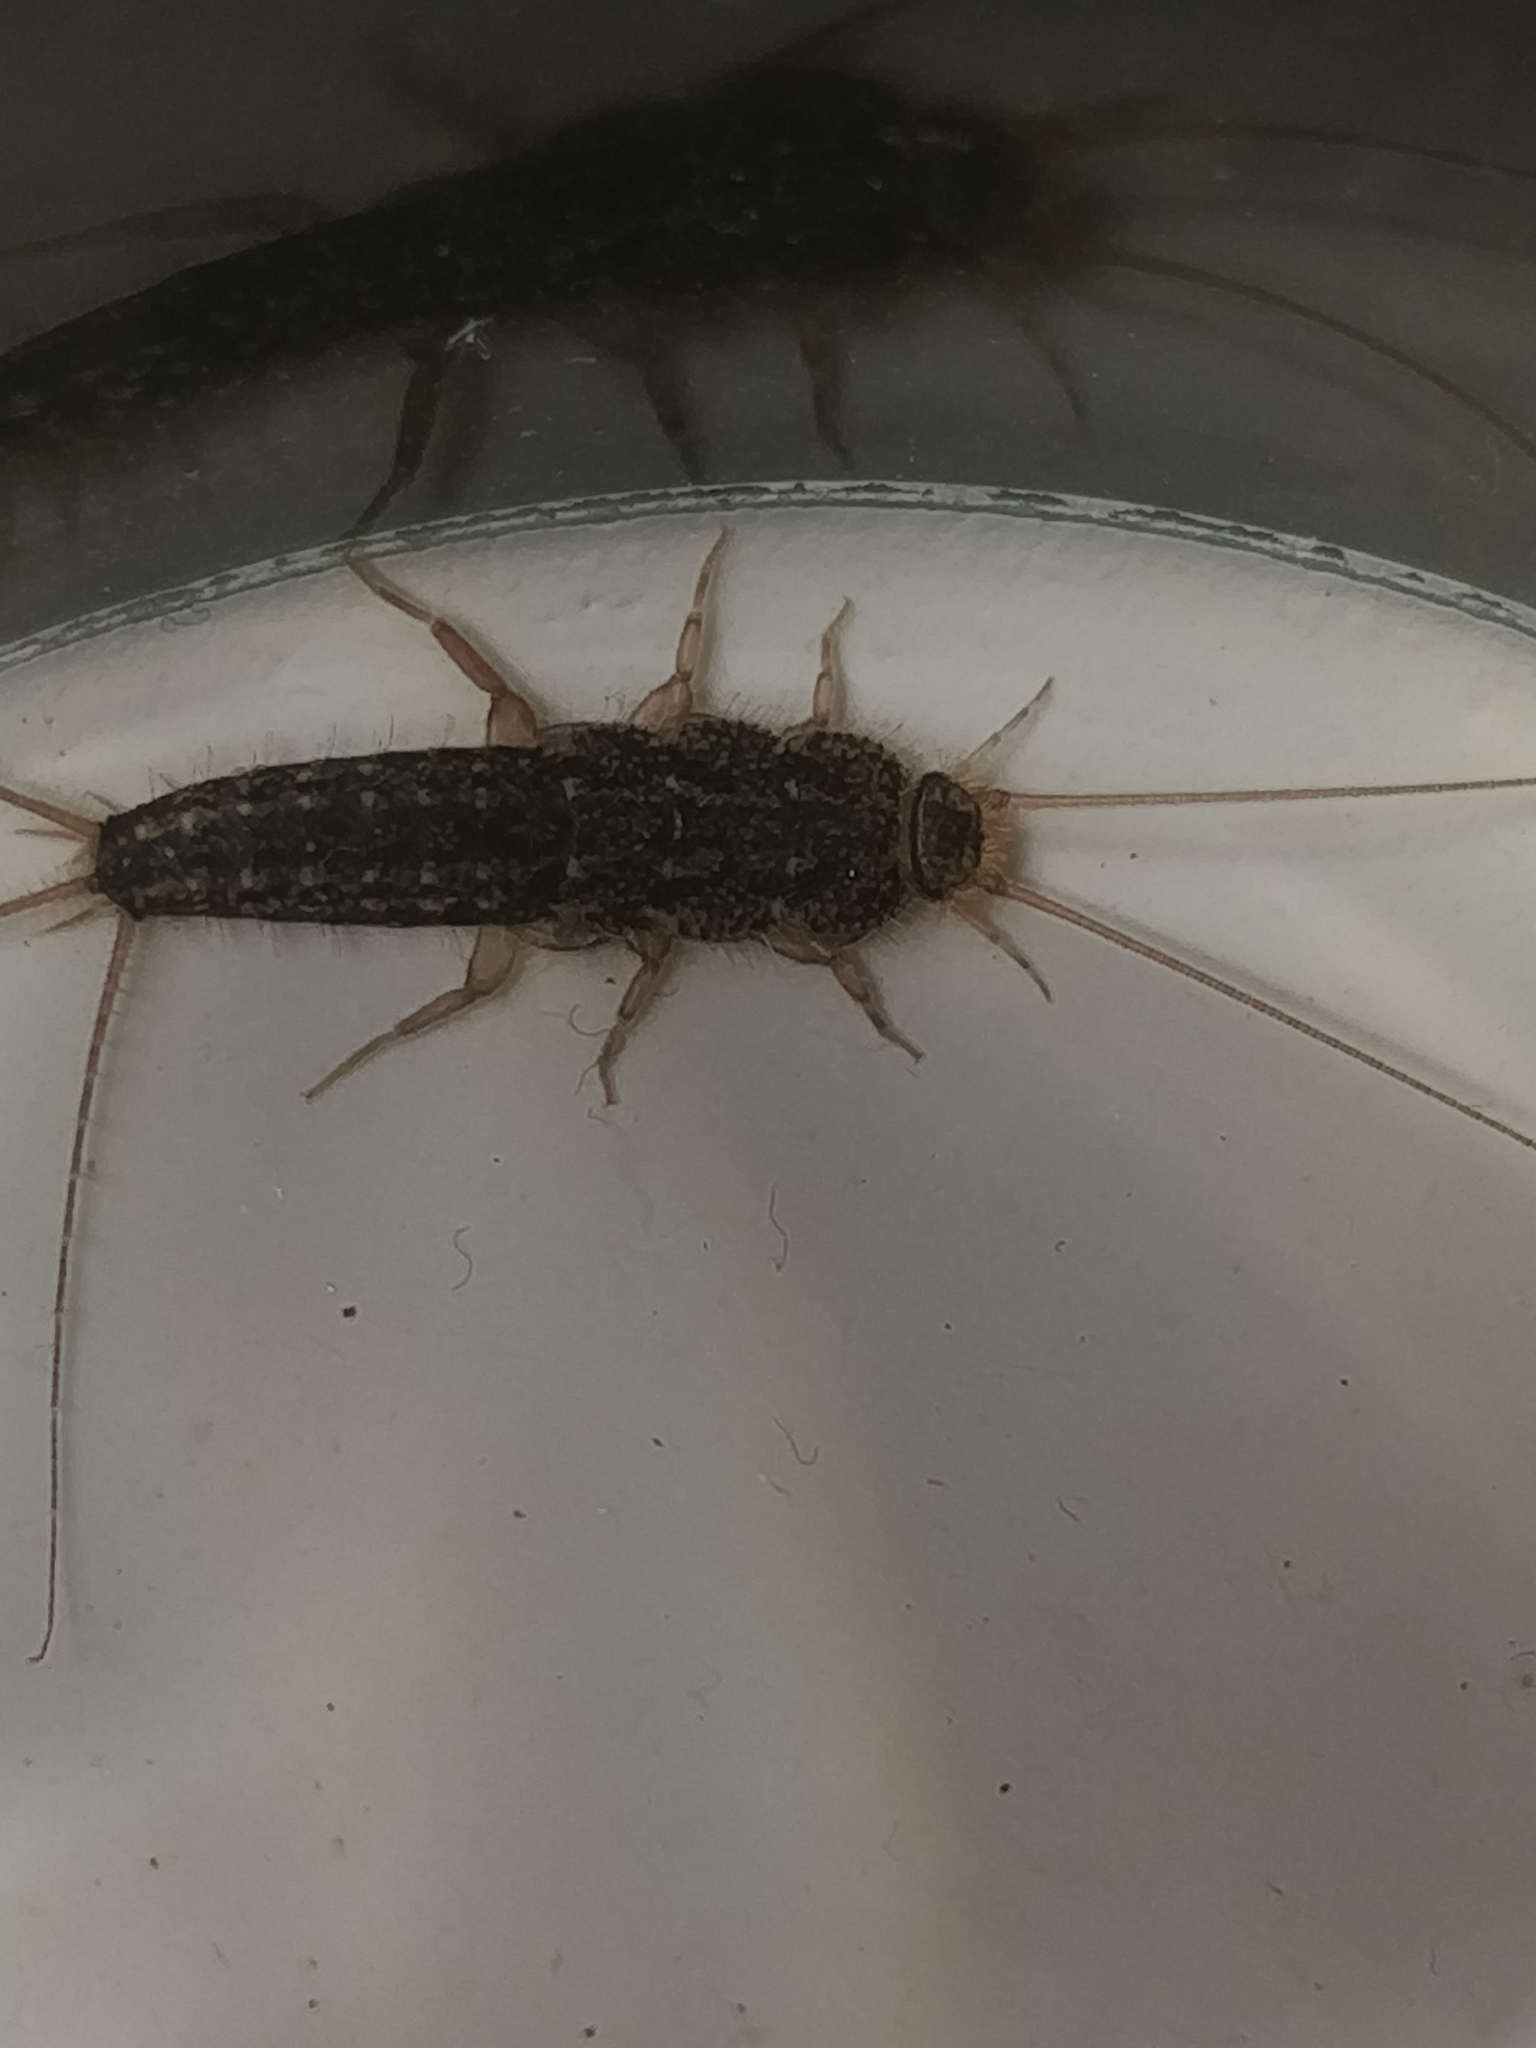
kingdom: Animalia
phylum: Arthropoda
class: Insecta
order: Zygentoma
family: Lepismatidae
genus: Ctenolepisma
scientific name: Ctenolepisma lineata
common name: Four-lined silverfish
